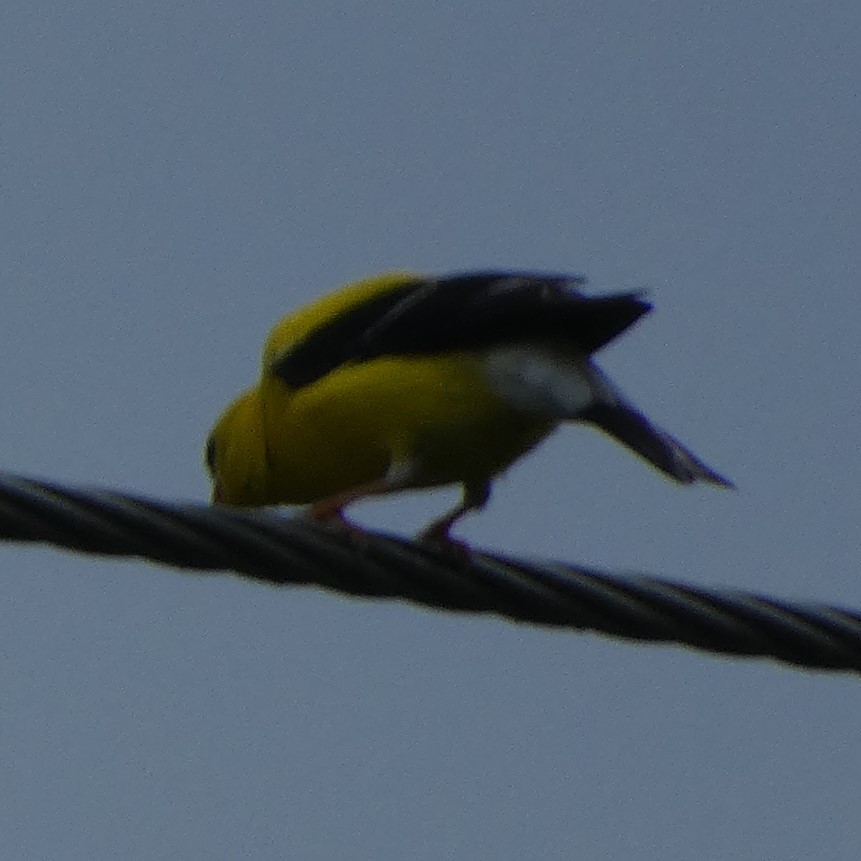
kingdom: Animalia
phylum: Chordata
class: Aves
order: Passeriformes
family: Fringillidae
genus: Spinus
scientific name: Spinus tristis
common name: American goldfinch
